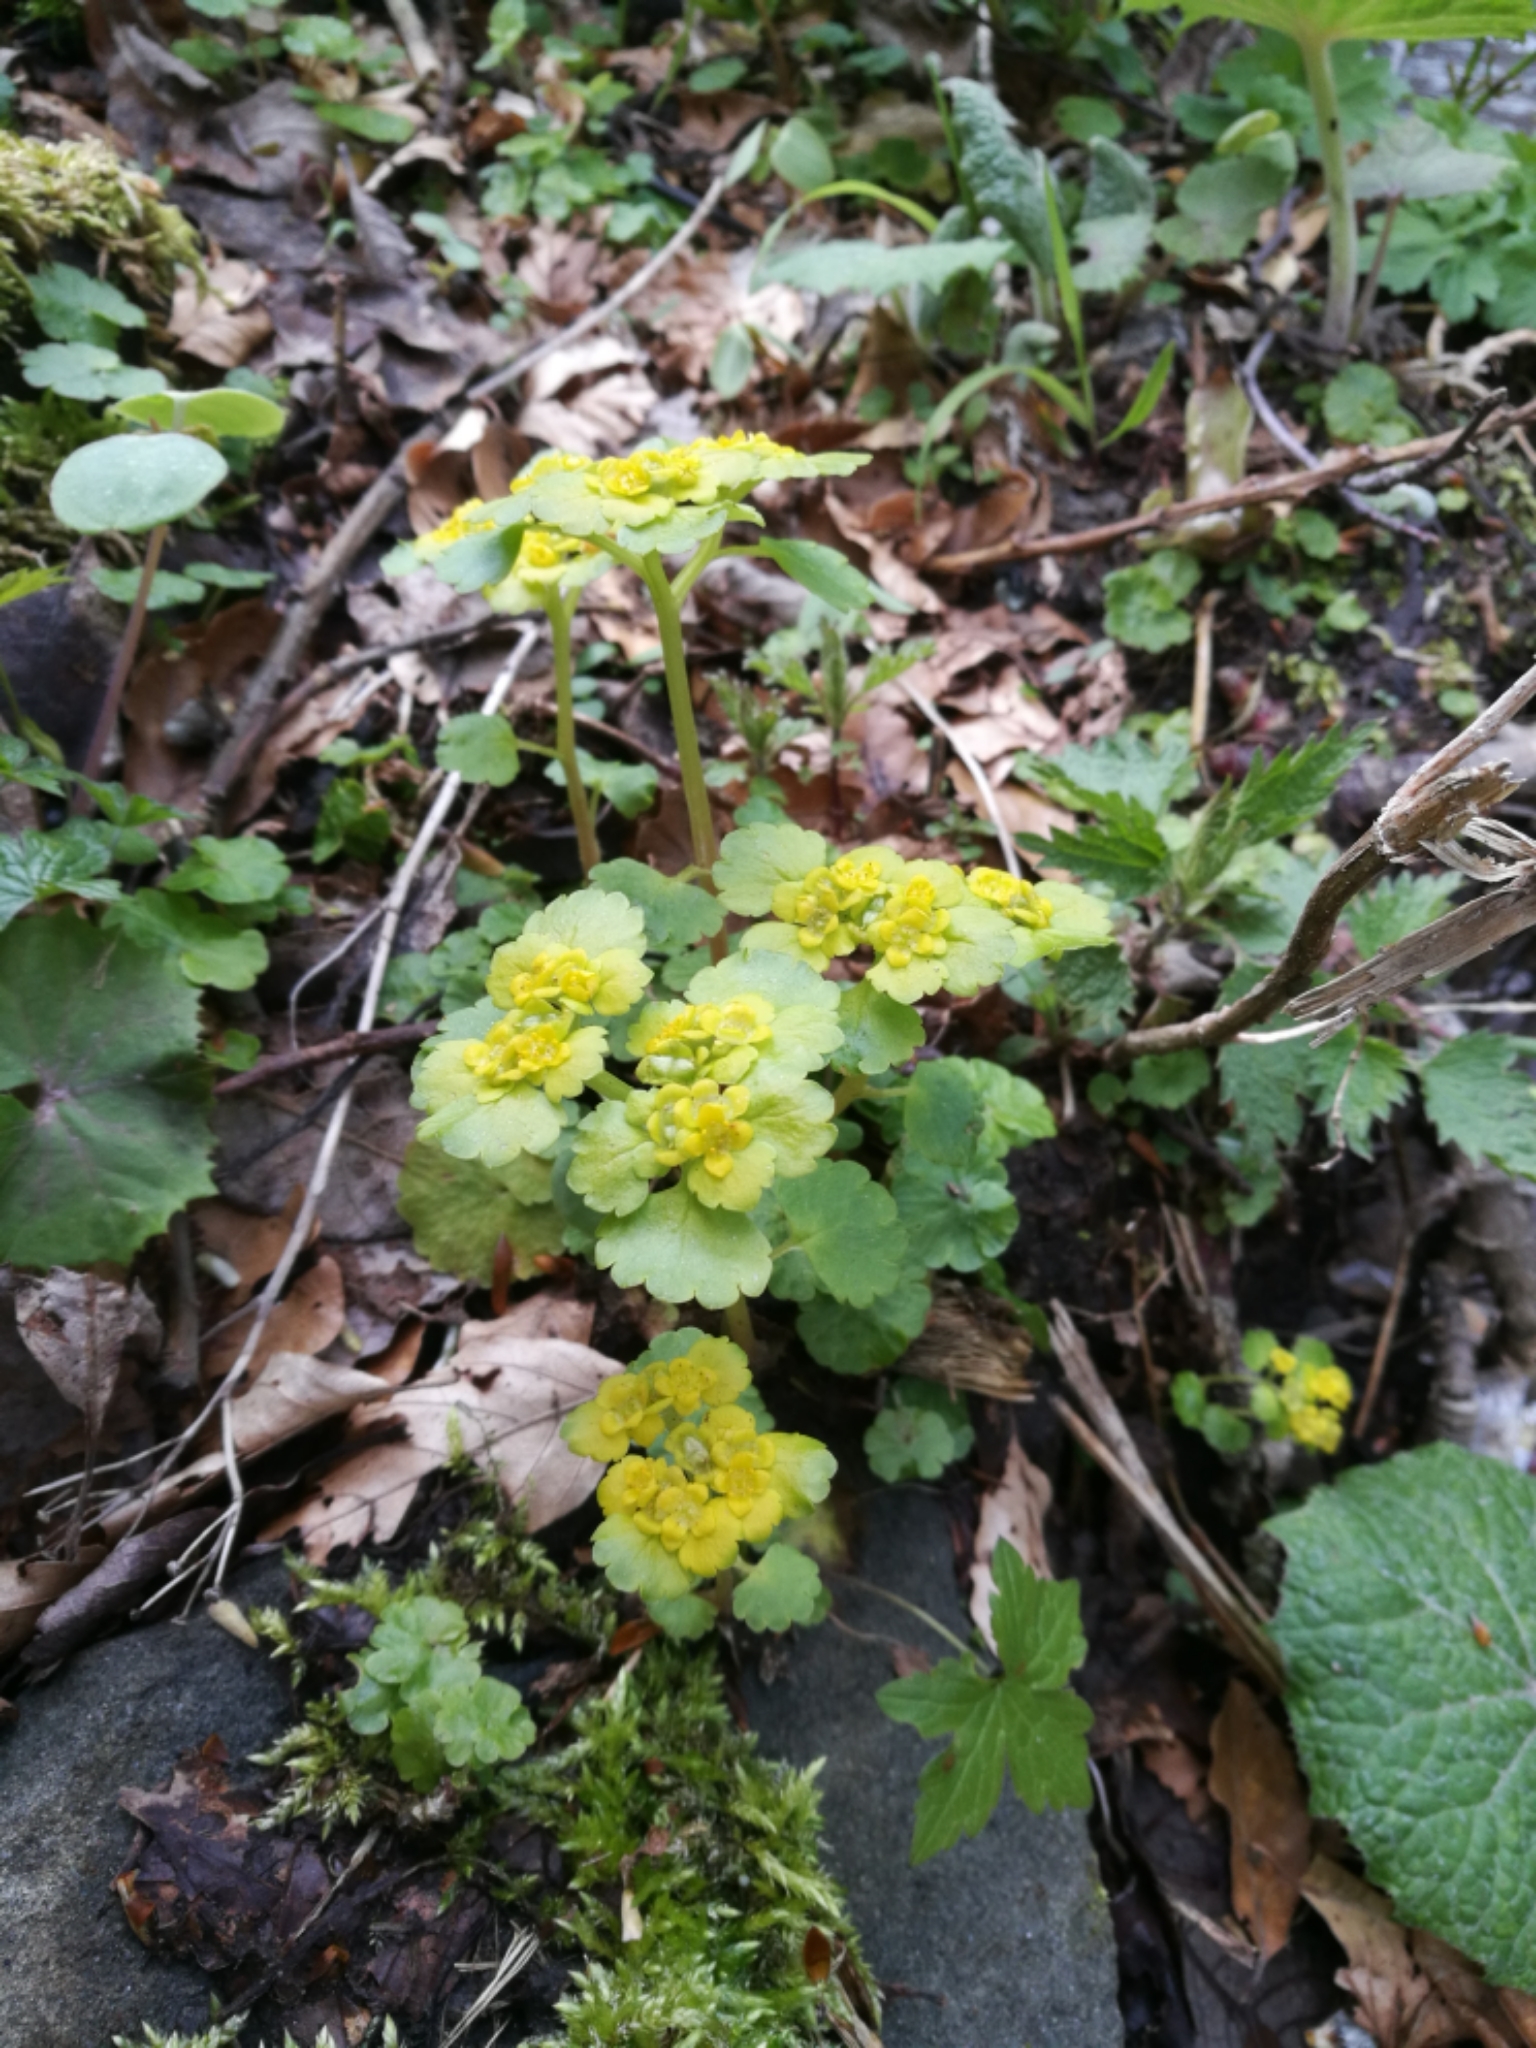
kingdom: Plantae
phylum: Tracheophyta
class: Magnoliopsida
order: Saxifragales
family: Saxifragaceae
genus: Chrysosplenium
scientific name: Chrysosplenium alternifolium
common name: Alternate-leaved golden-saxifrage
